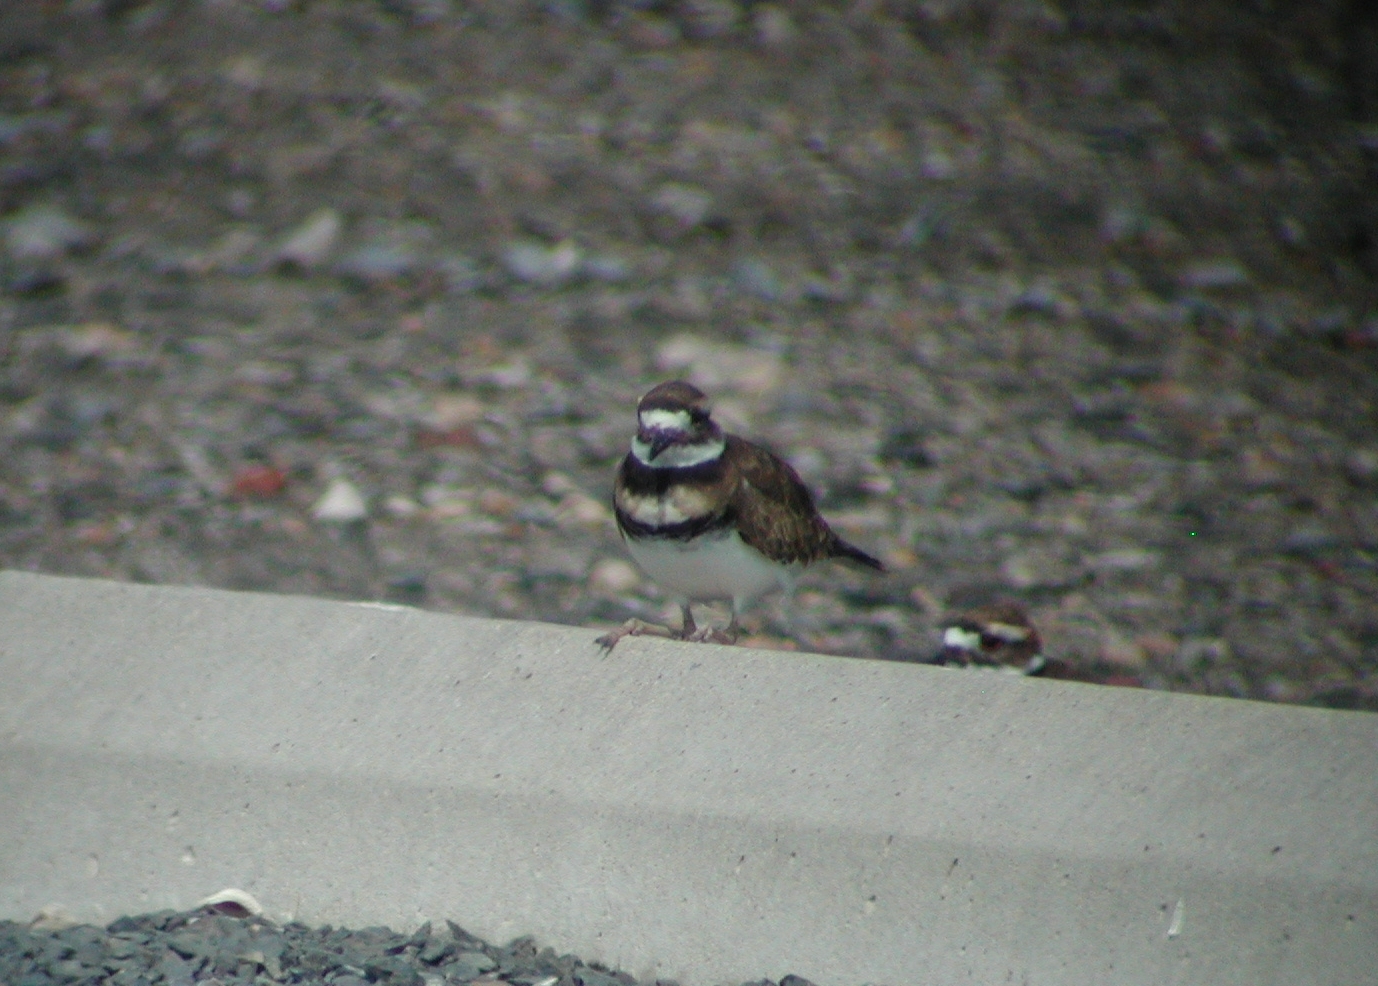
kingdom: Animalia
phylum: Chordata
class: Aves
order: Charadriiformes
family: Charadriidae
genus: Charadrius
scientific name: Charadrius vociferus
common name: Killdeer
